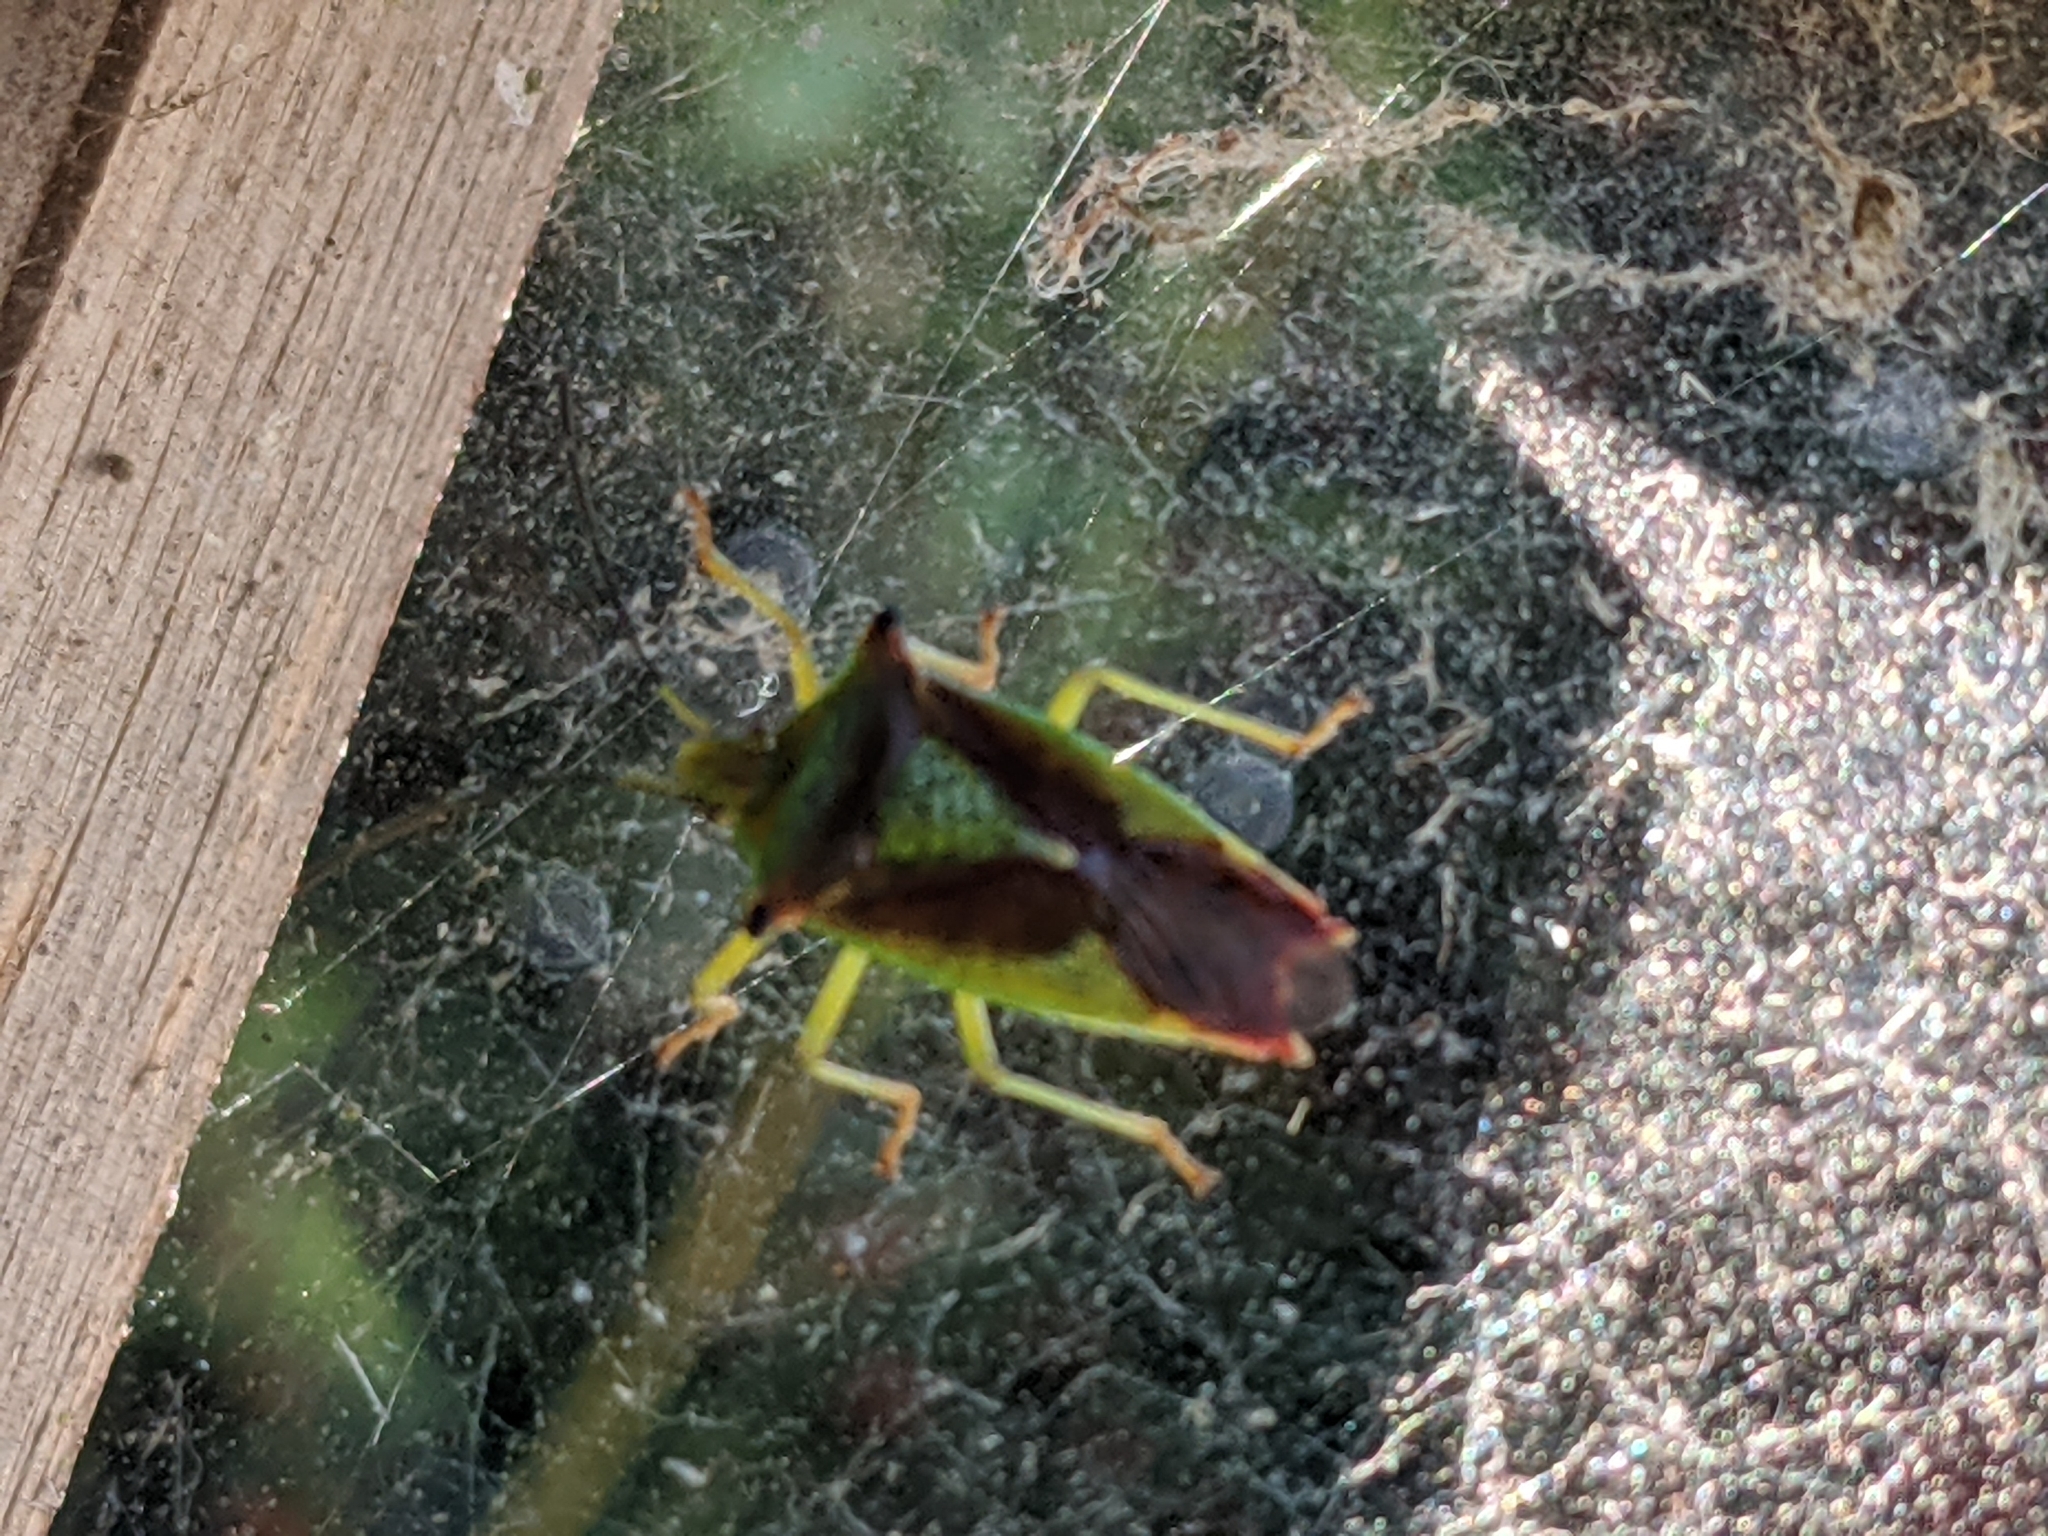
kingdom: Animalia
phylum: Arthropoda
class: Insecta
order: Hemiptera
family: Acanthosomatidae
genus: Acanthosoma
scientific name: Acanthosoma haemorrhoidale
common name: Hawthorn shieldbug
